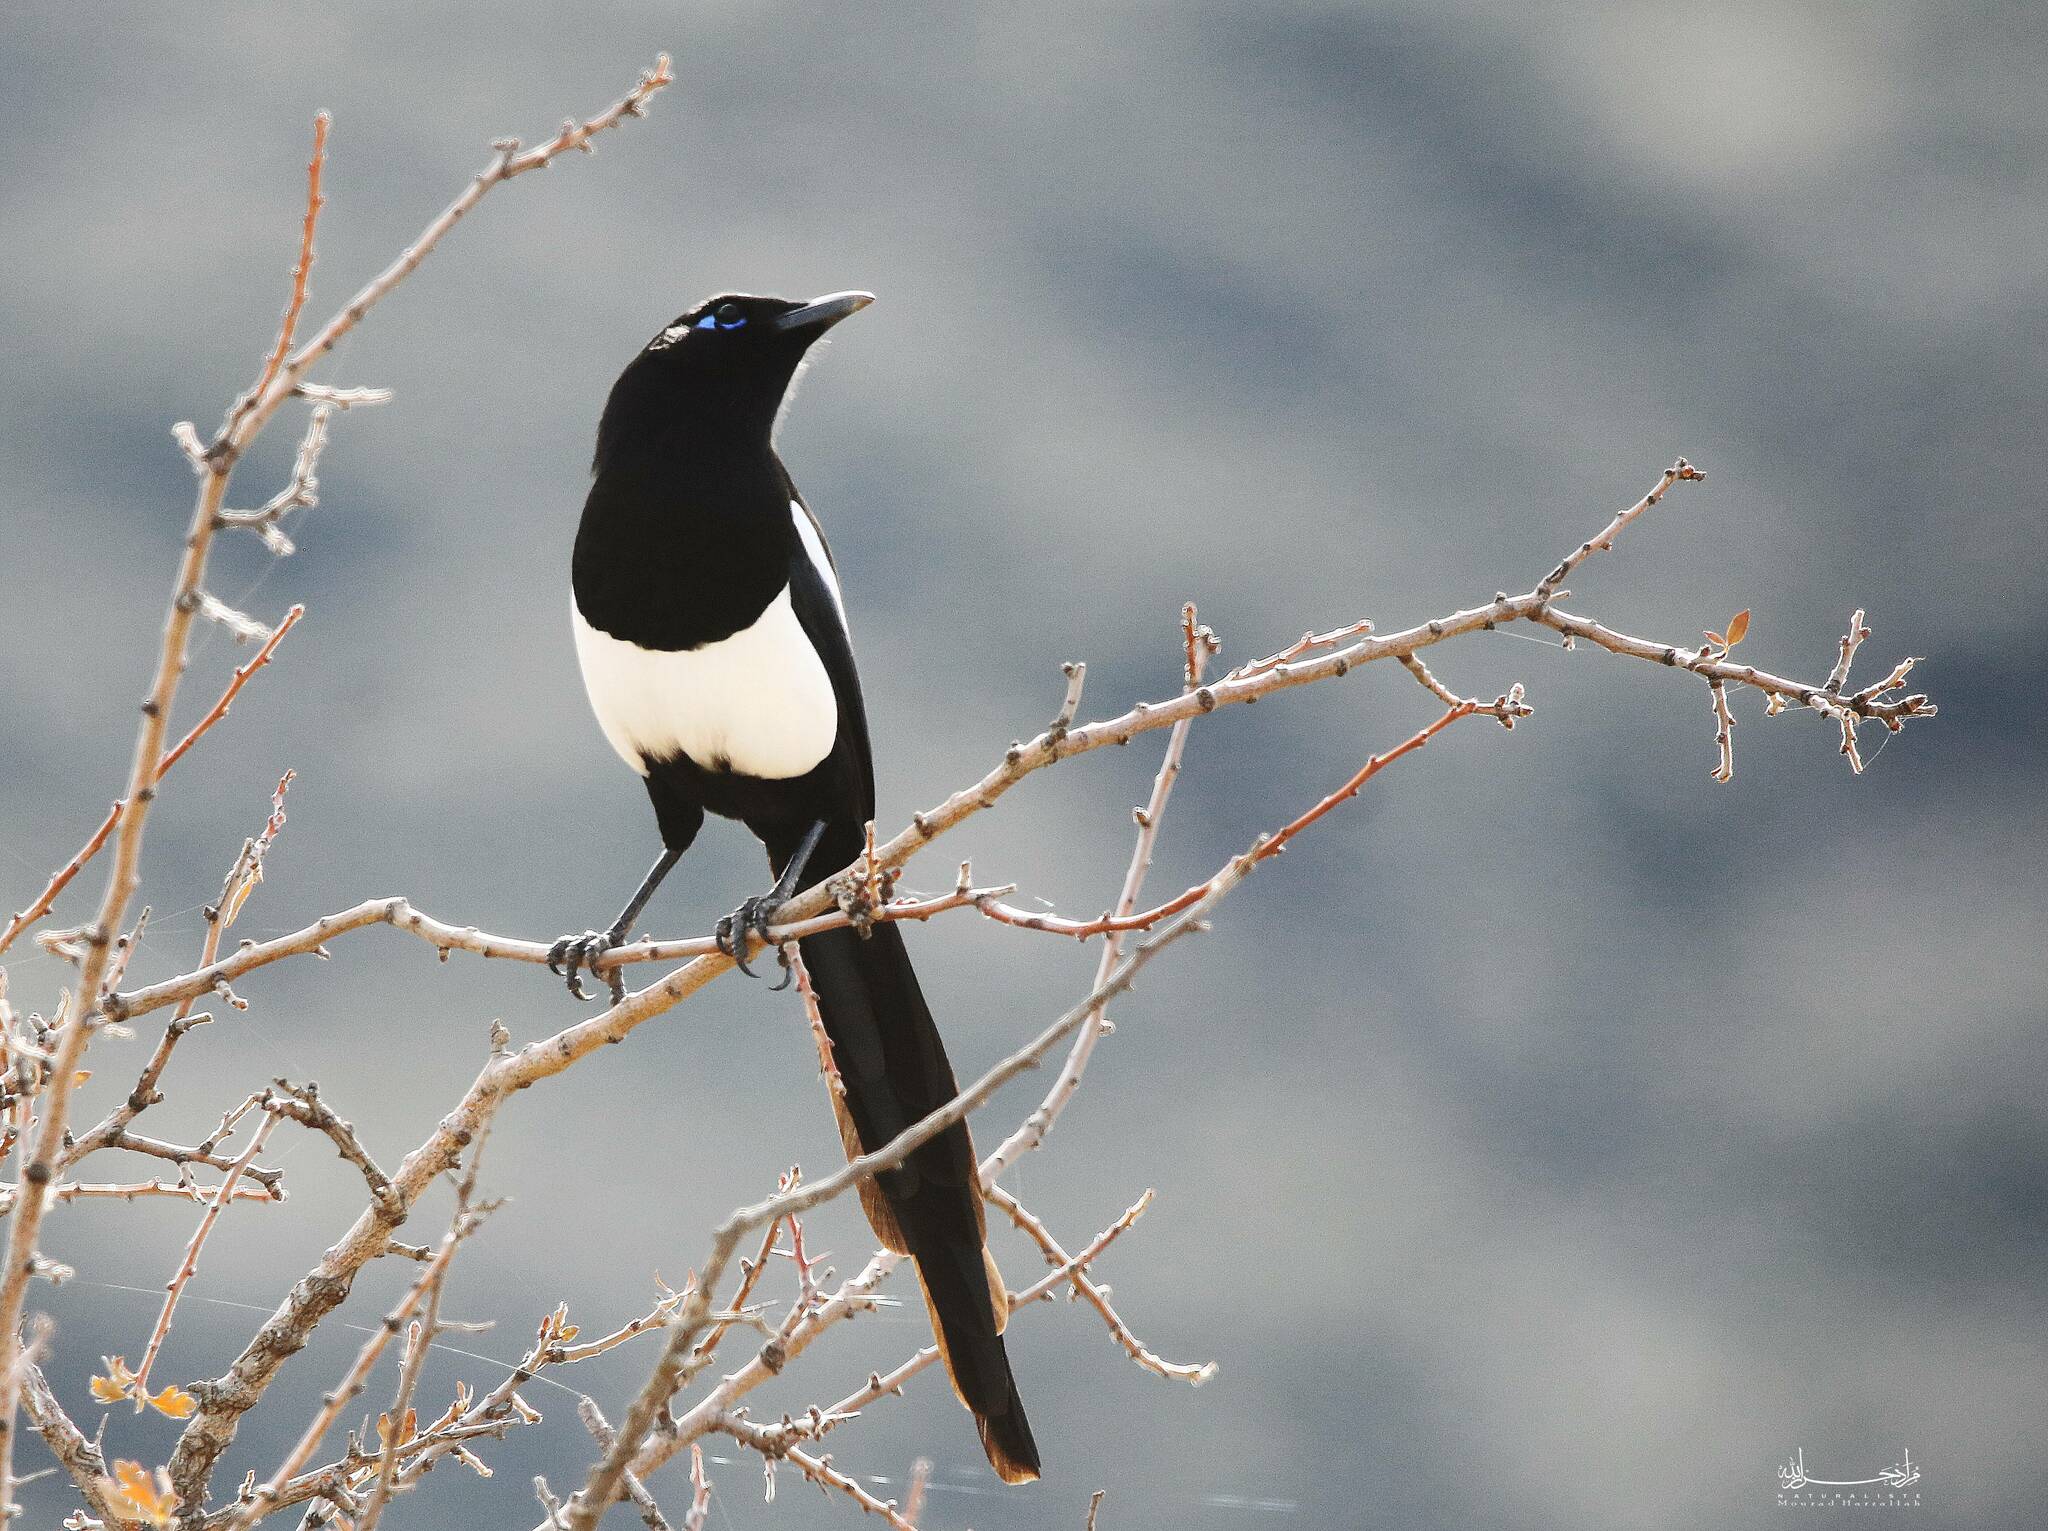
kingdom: Animalia
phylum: Chordata
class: Aves
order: Passeriformes
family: Corvidae
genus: Pica
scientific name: Pica mauritanica
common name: Maghreb magpie
